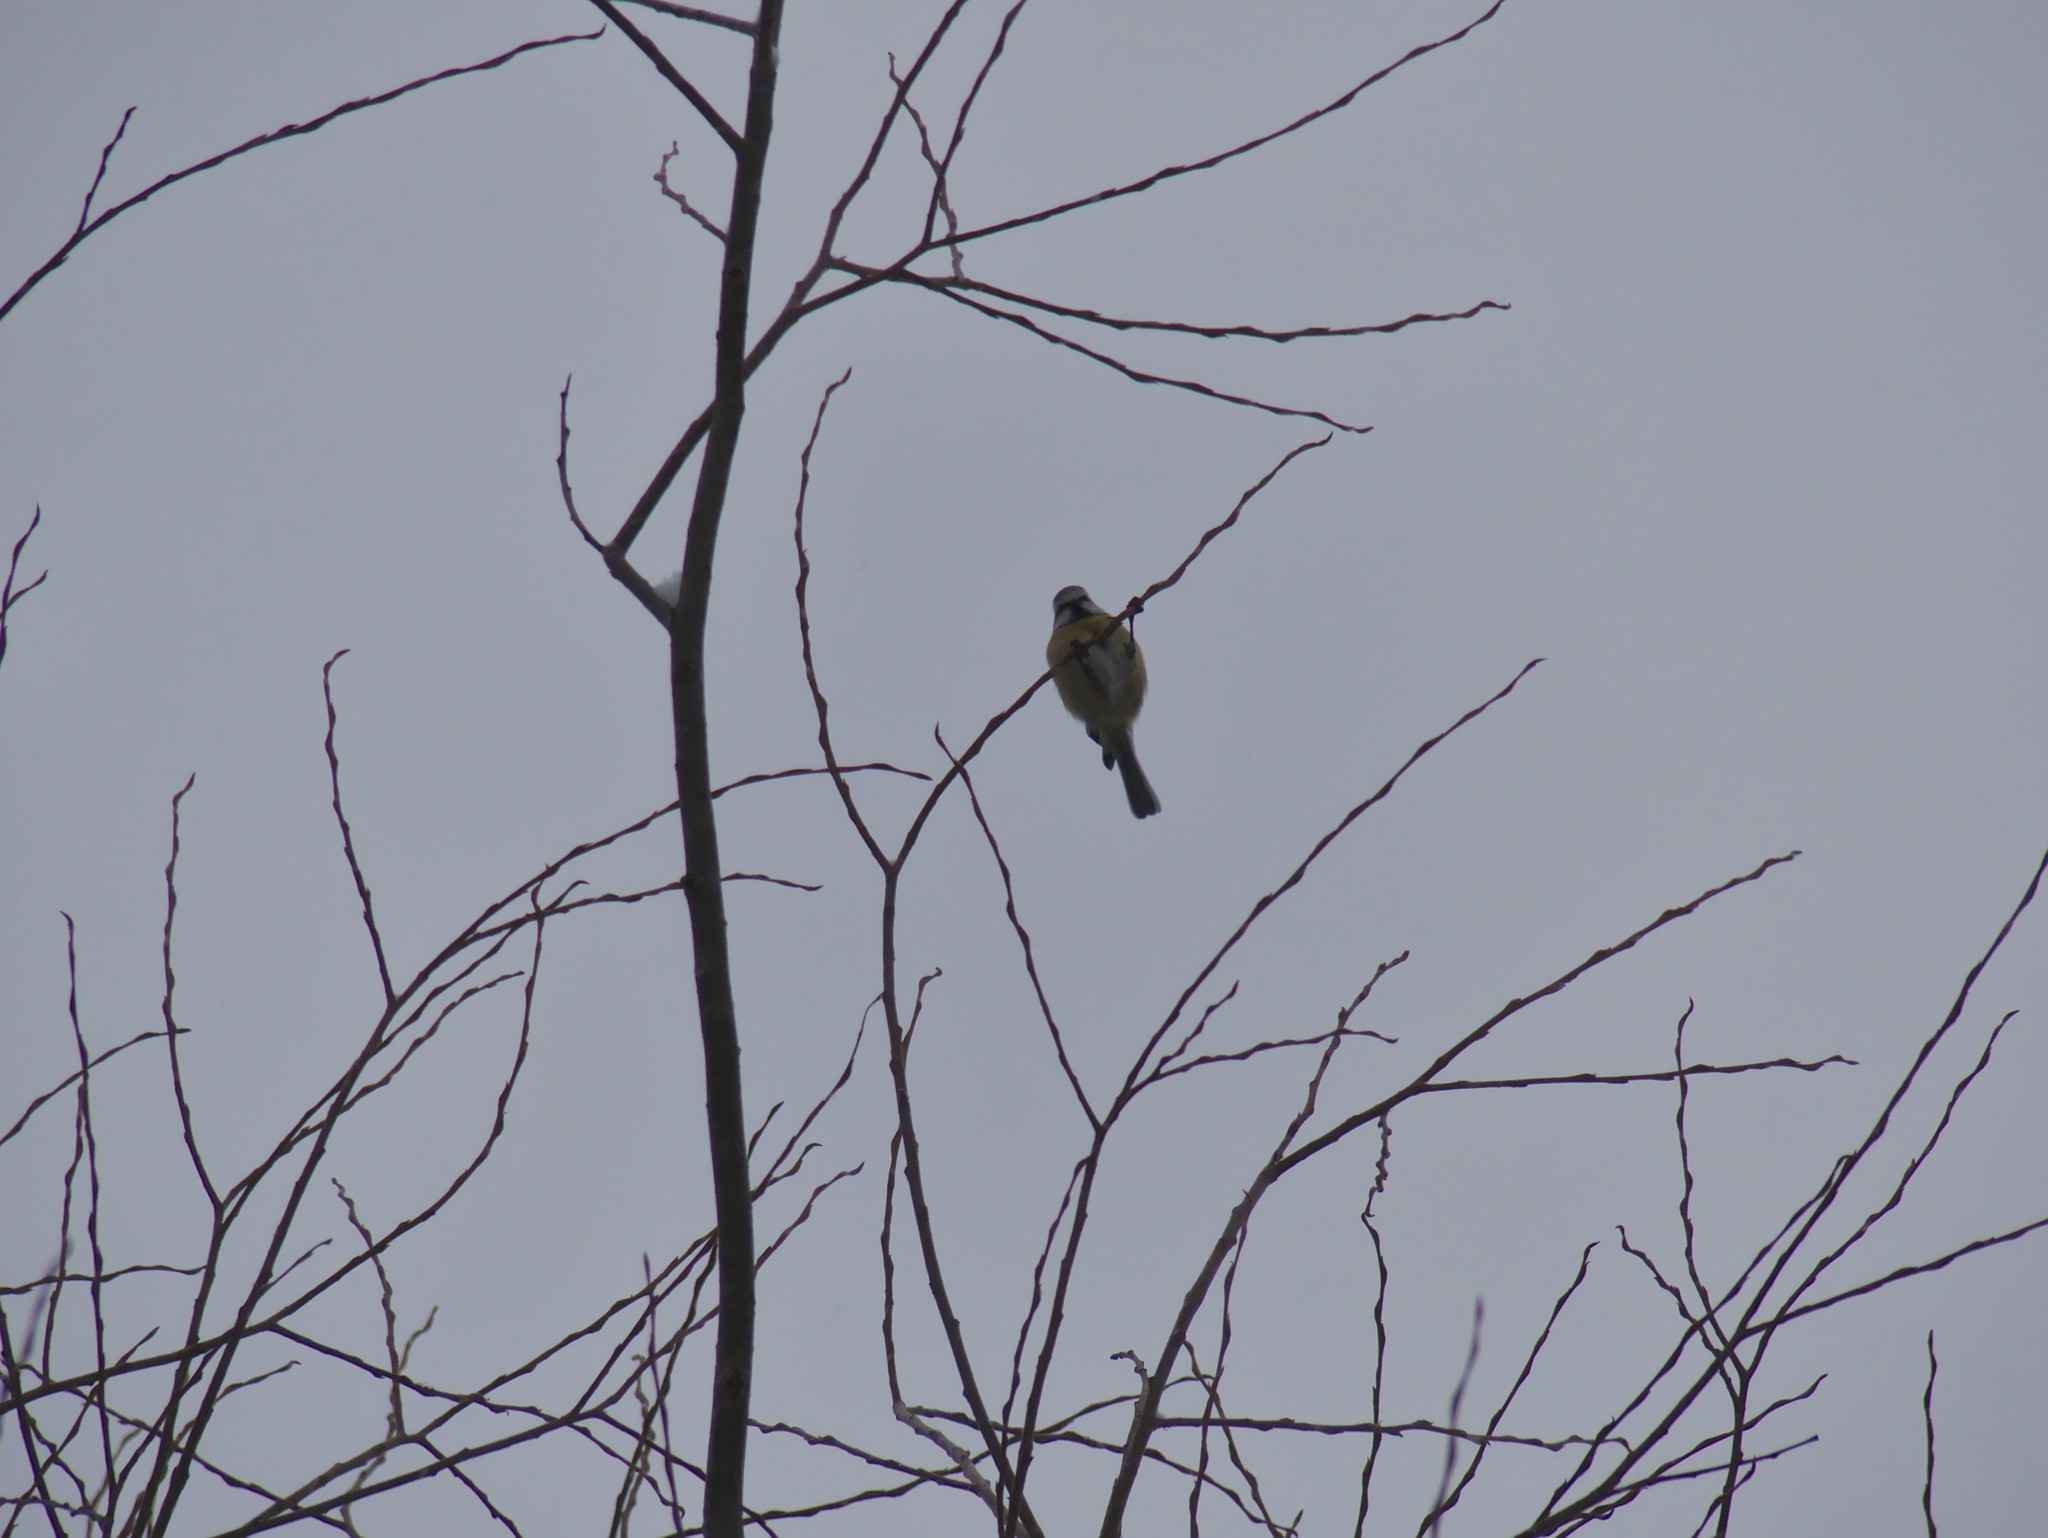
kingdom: Animalia
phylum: Chordata
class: Aves
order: Passeriformes
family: Paridae
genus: Cyanistes
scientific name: Cyanistes caeruleus
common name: Eurasian blue tit
